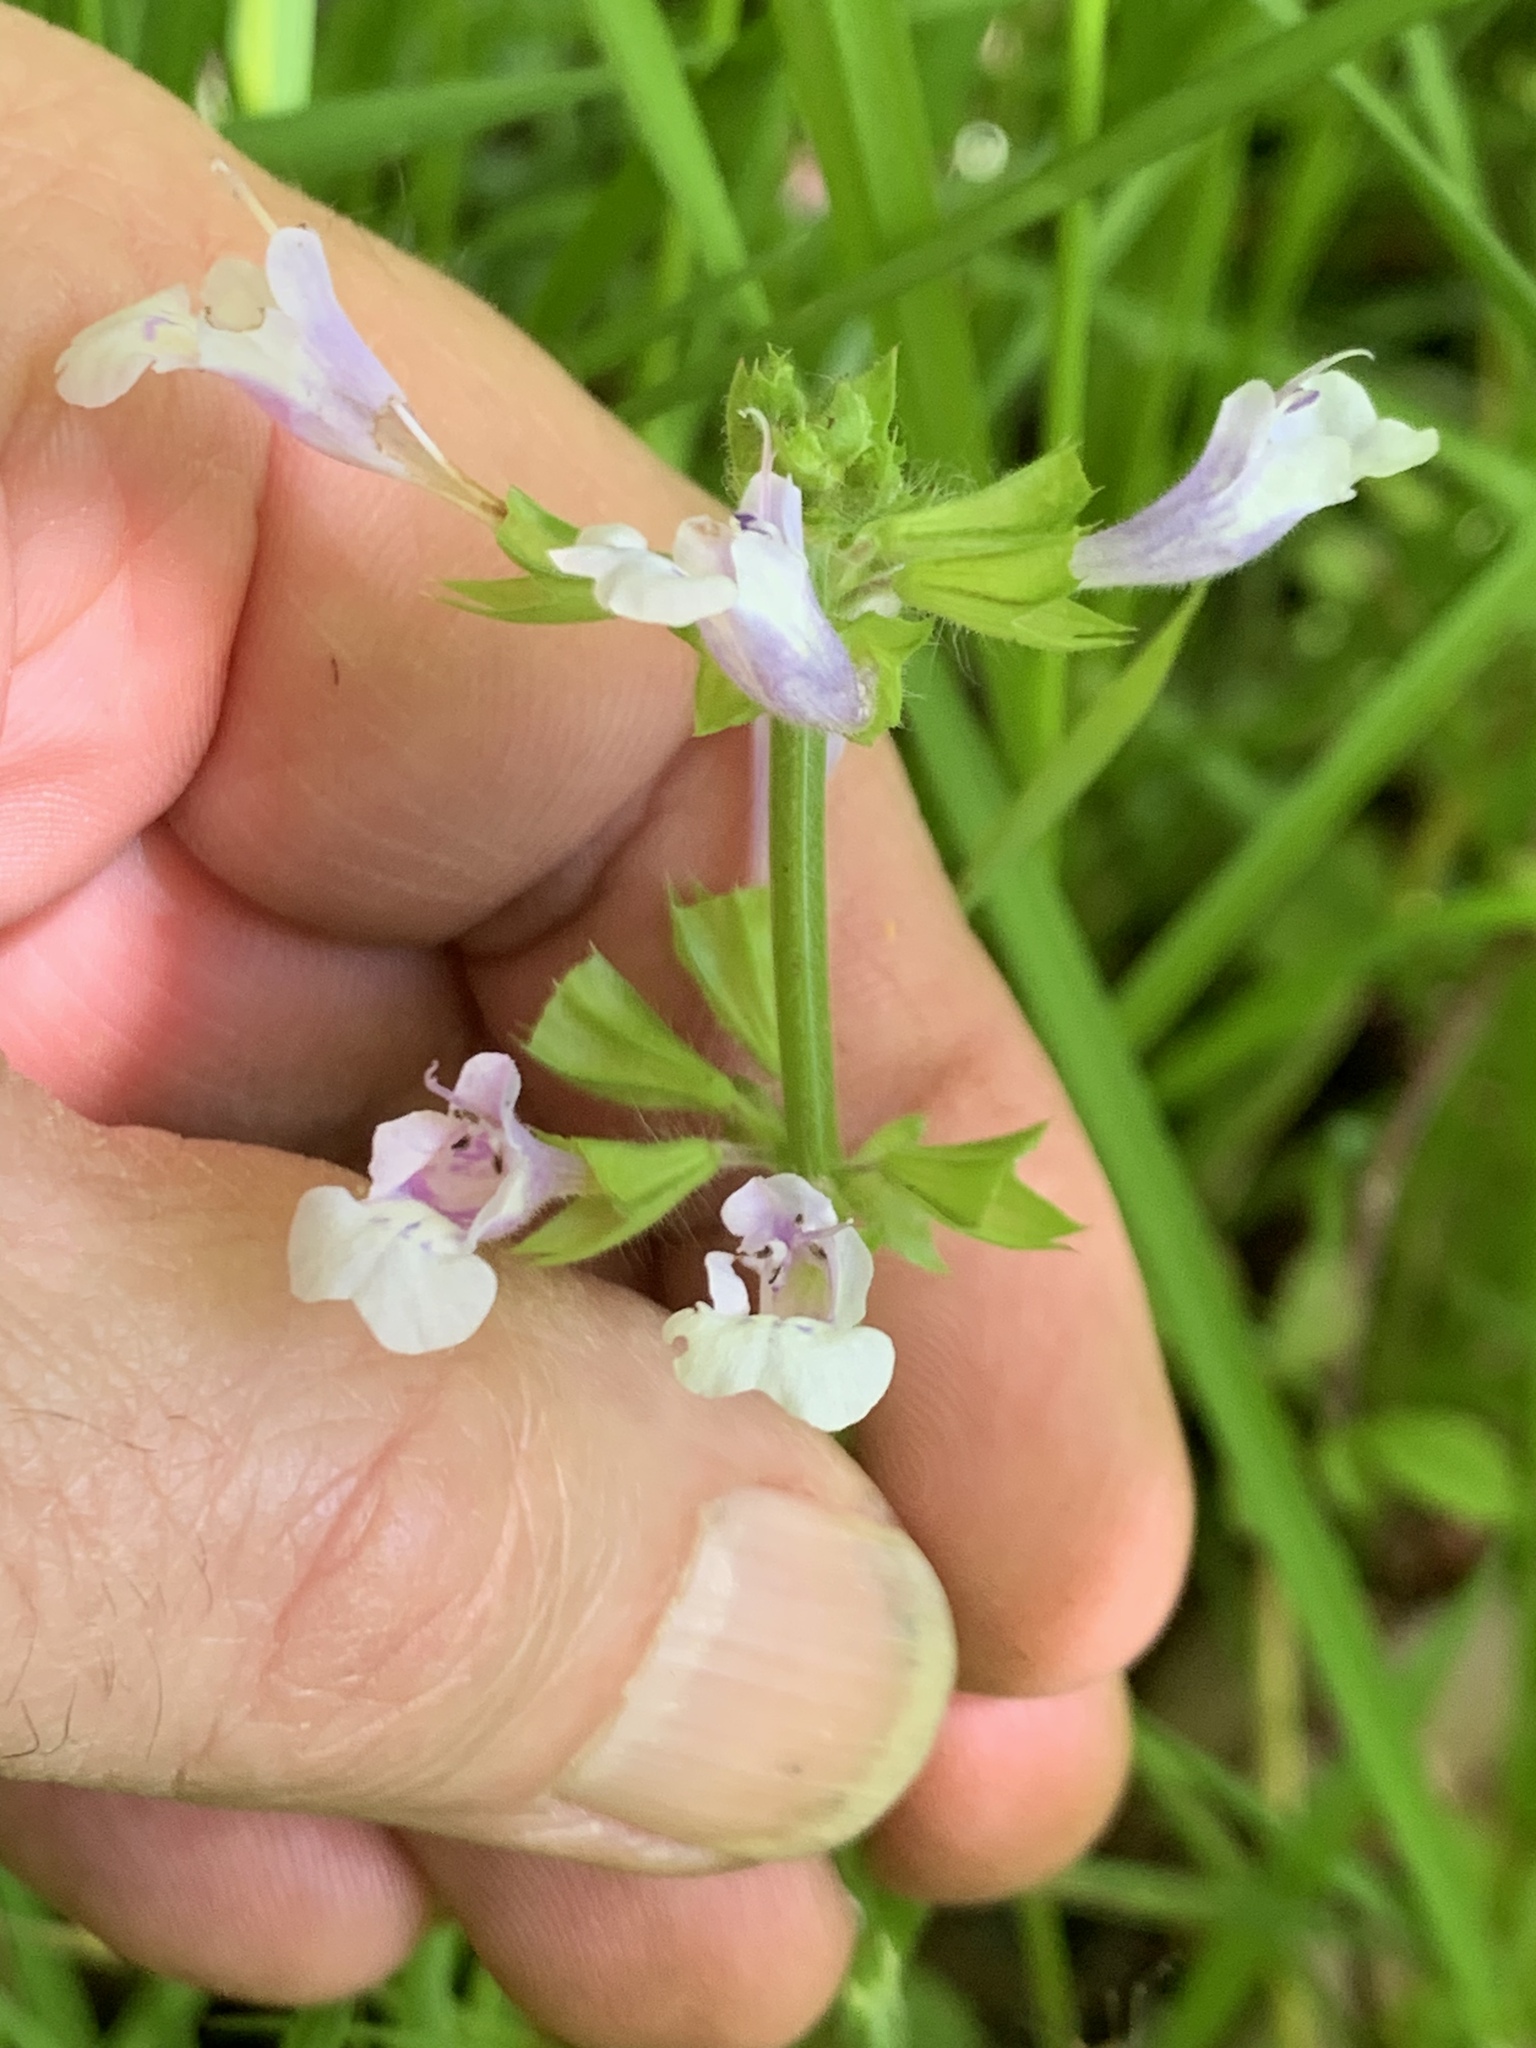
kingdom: Plantae
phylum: Tracheophyta
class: Magnoliopsida
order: Lamiales
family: Lamiaceae
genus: Salvia
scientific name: Salvia lyrata
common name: Cancerweed
